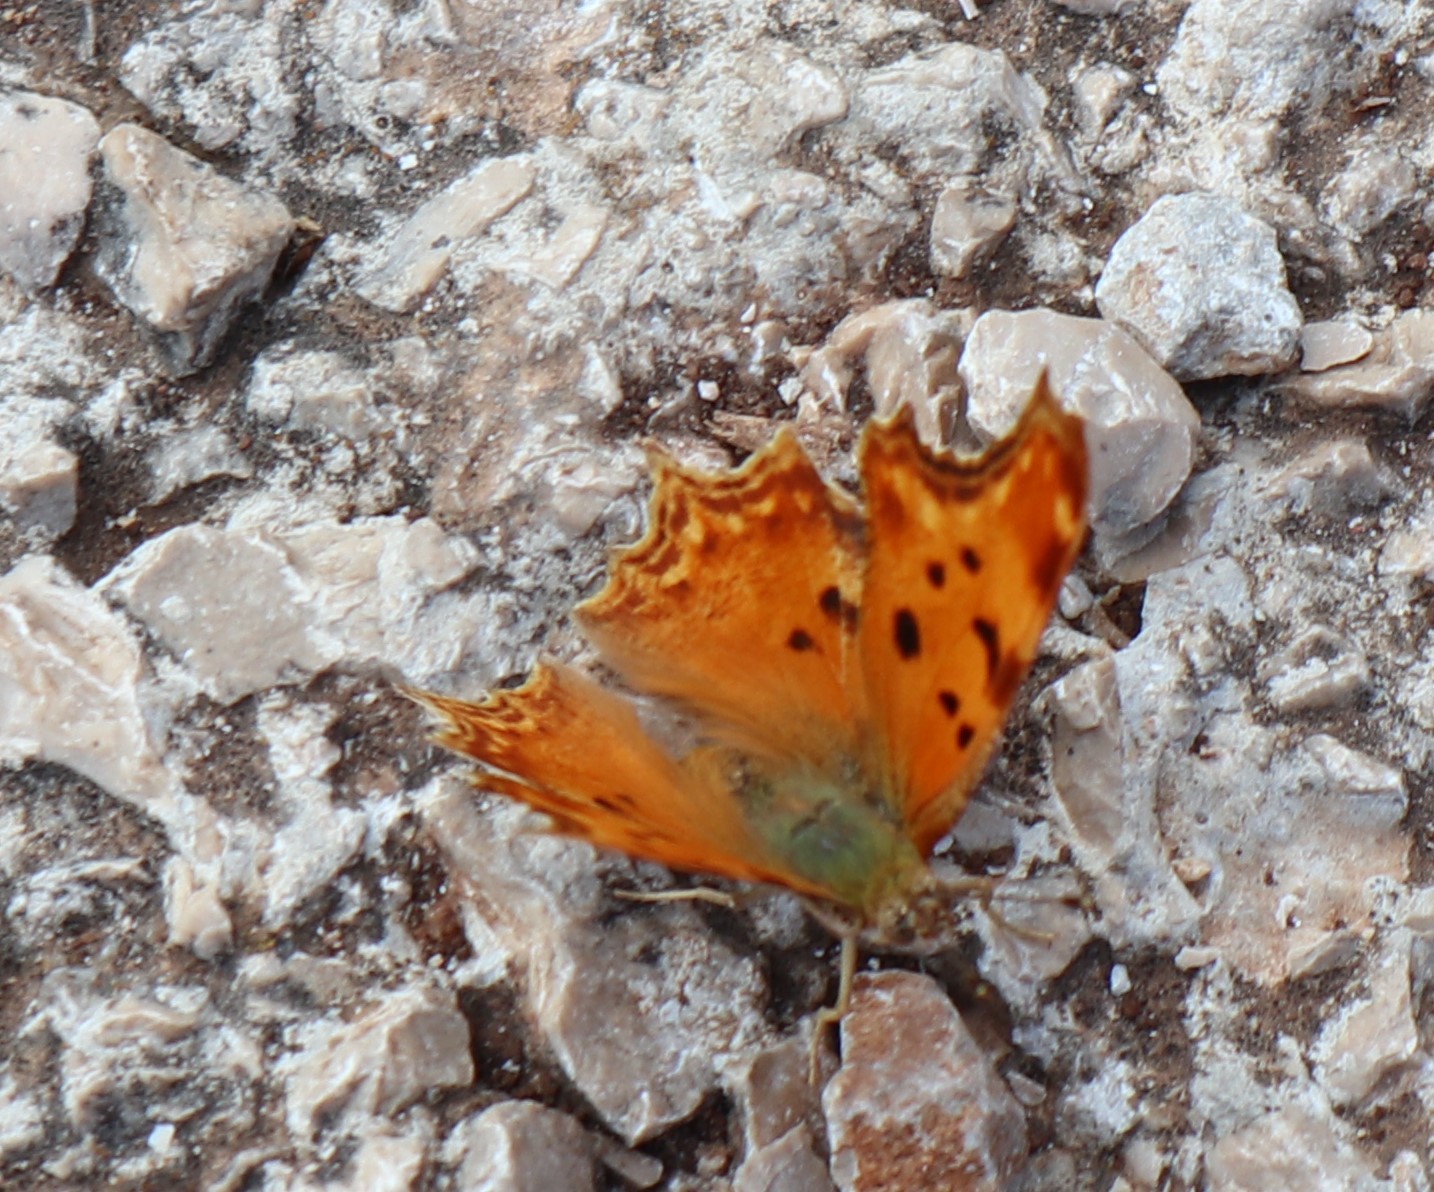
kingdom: Animalia
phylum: Arthropoda
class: Insecta
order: Lepidoptera
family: Nymphalidae
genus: Polygonia
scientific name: Polygonia egea
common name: Southern comma
